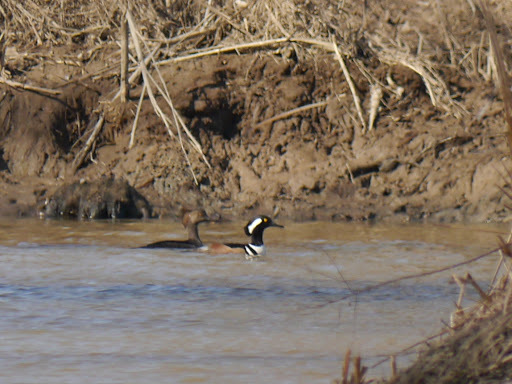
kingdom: Animalia
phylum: Chordata
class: Aves
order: Anseriformes
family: Anatidae
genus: Lophodytes
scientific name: Lophodytes cucullatus
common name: Hooded merganser
